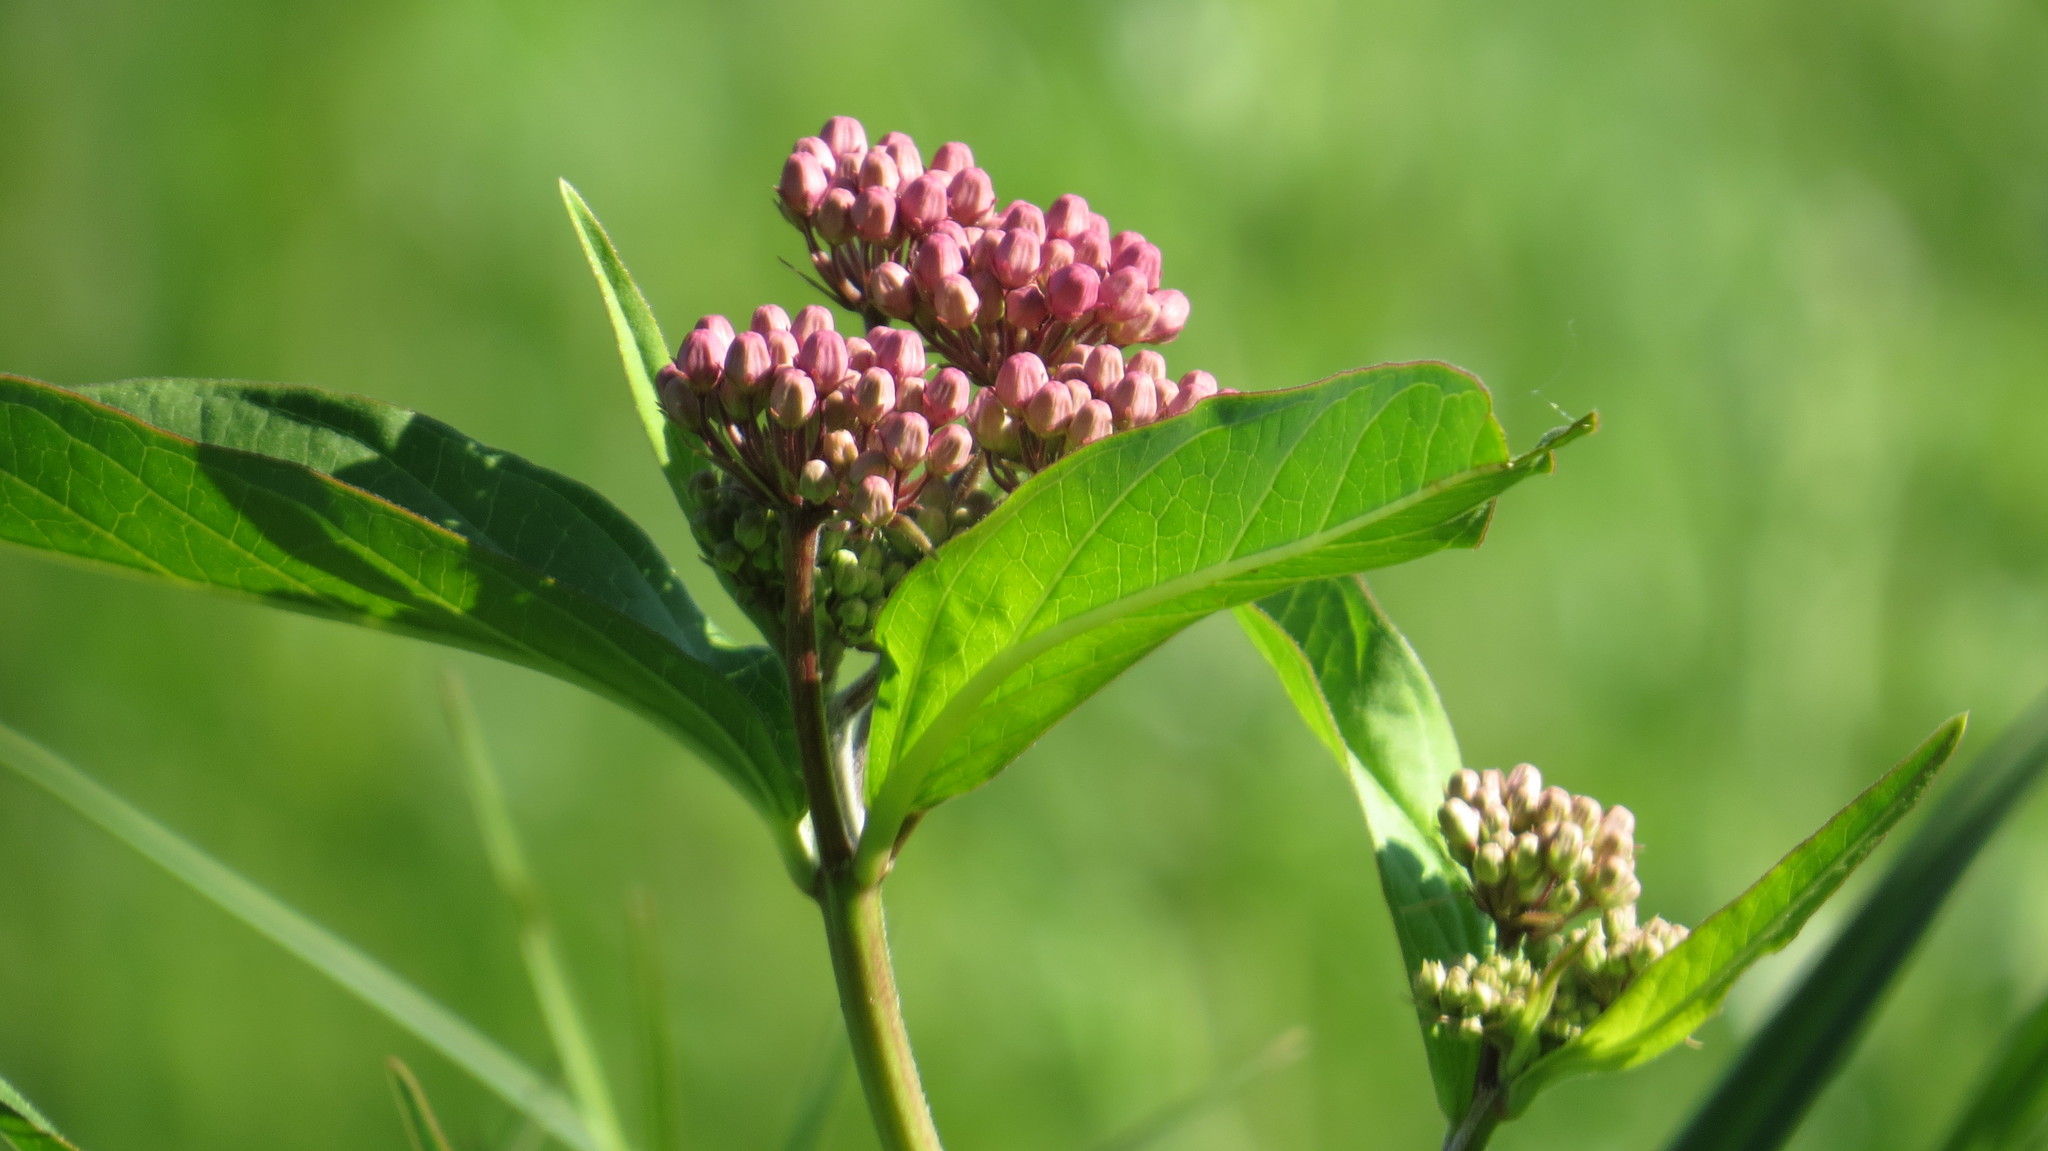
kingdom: Plantae
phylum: Tracheophyta
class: Magnoliopsida
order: Gentianales
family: Apocynaceae
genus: Asclepias
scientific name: Asclepias incarnata
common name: Swamp milkweed
